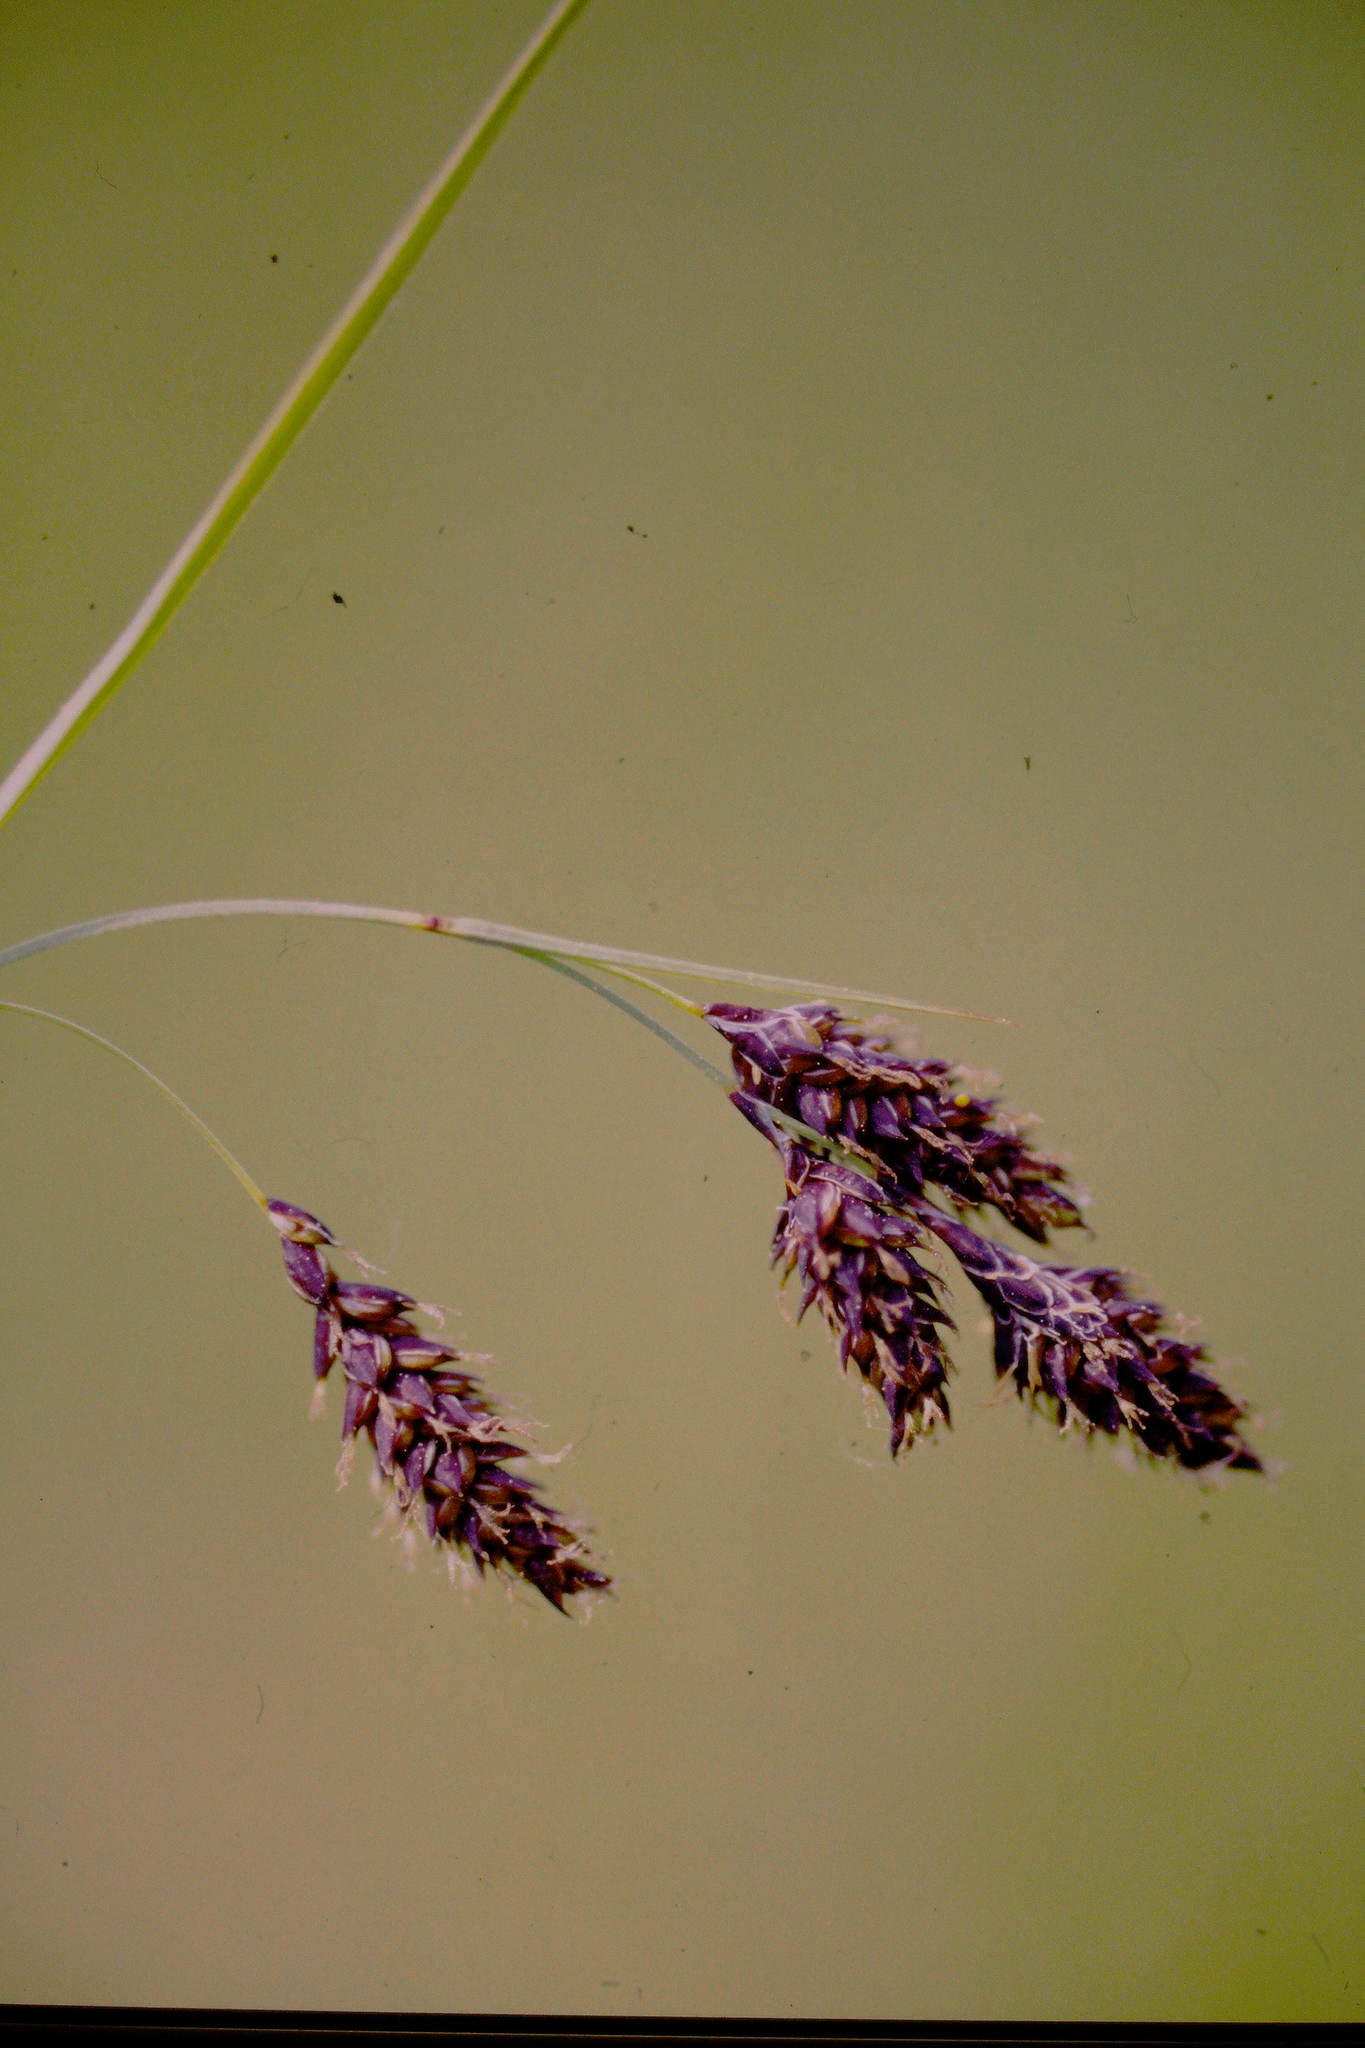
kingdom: Plantae
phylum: Tracheophyta
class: Liliopsida
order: Poales
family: Cyperaceae
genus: Carex
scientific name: Carex atratiformis
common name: Black sedge
